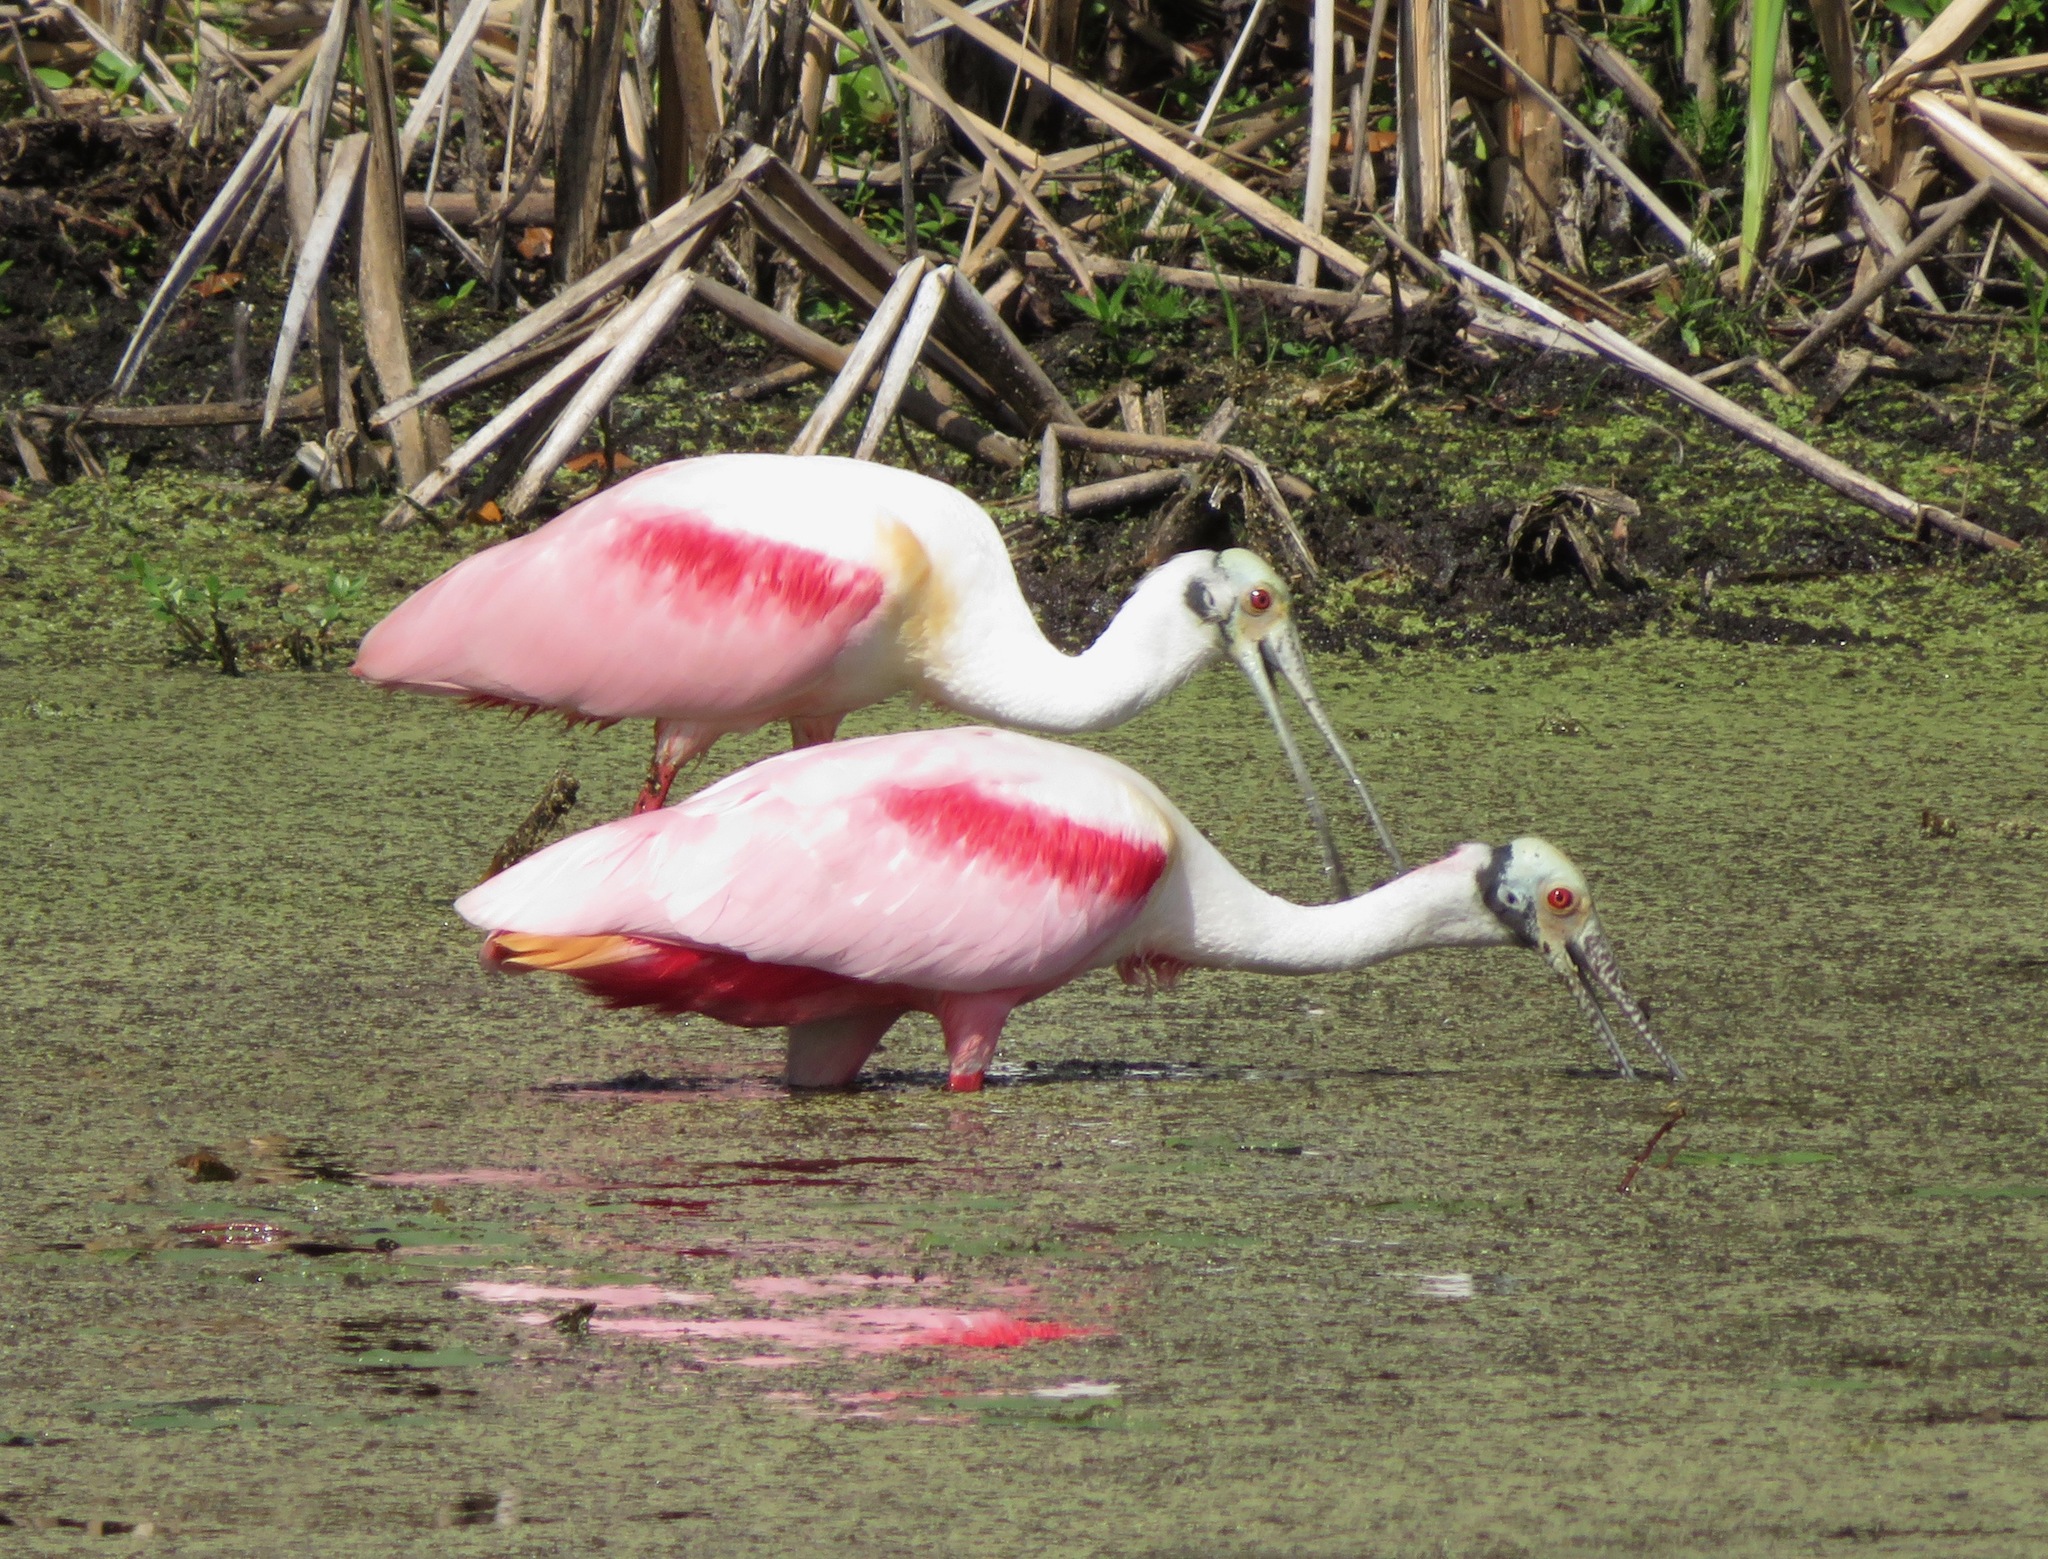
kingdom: Animalia
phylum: Chordata
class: Aves
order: Pelecaniformes
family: Threskiornithidae
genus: Platalea
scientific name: Platalea ajaja
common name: Roseate spoonbill
